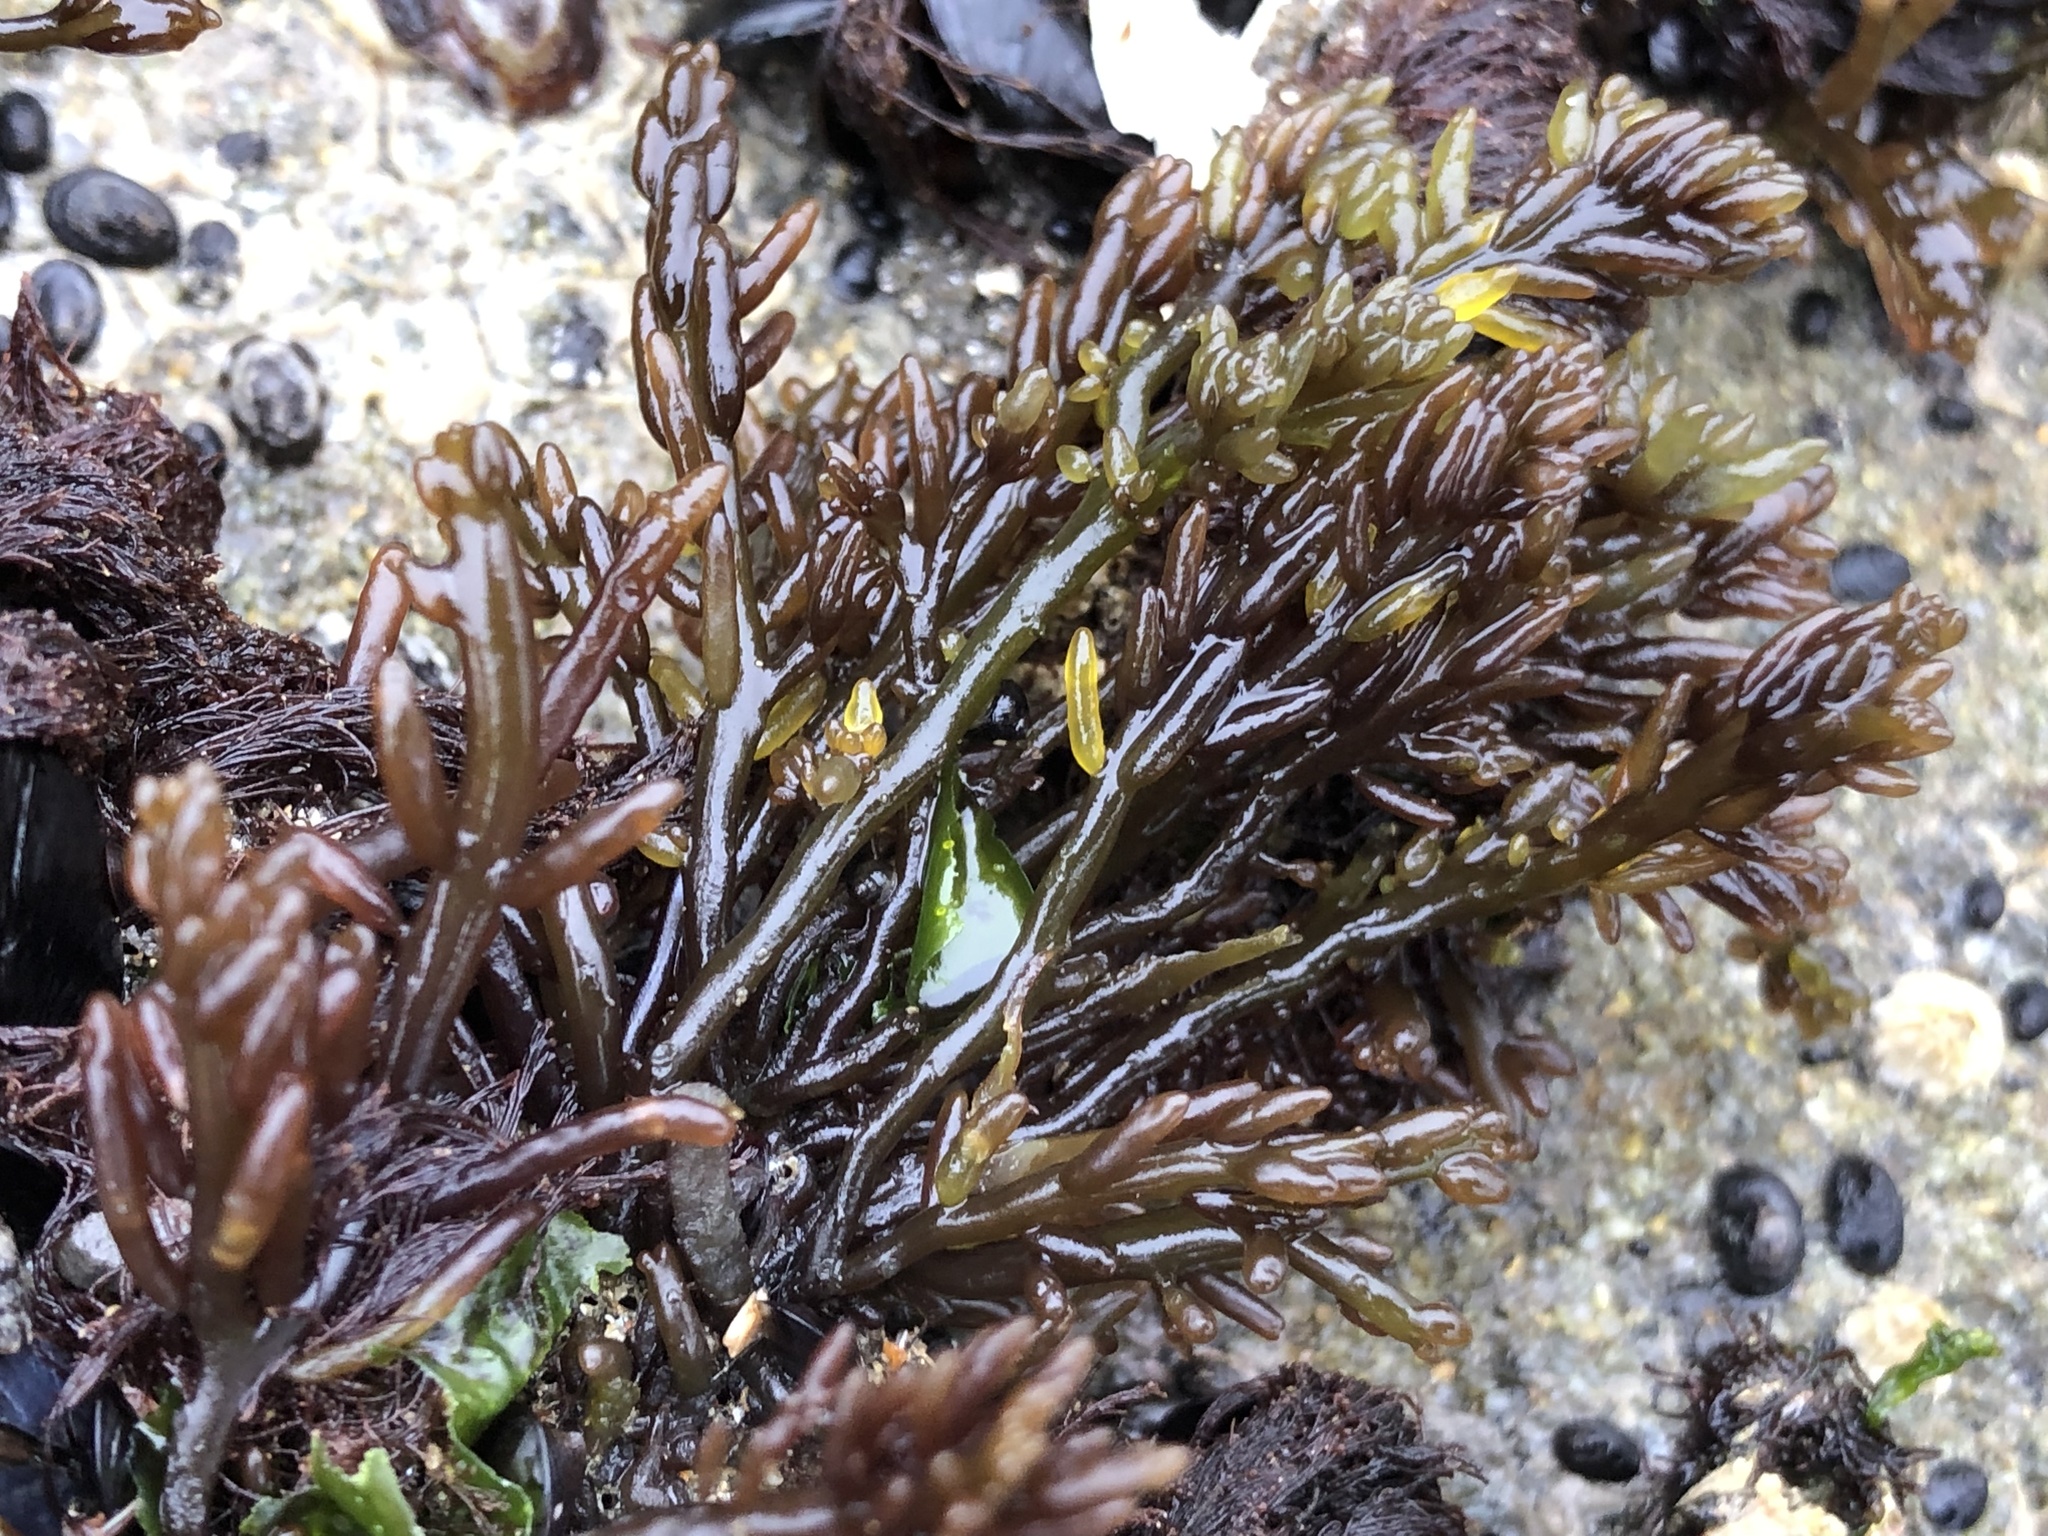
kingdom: Plantae
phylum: Rhodophyta
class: Florideophyceae
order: Rhodymeniales
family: Champiaceae
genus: Neogastroclonium
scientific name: Neogastroclonium subarticulatum
